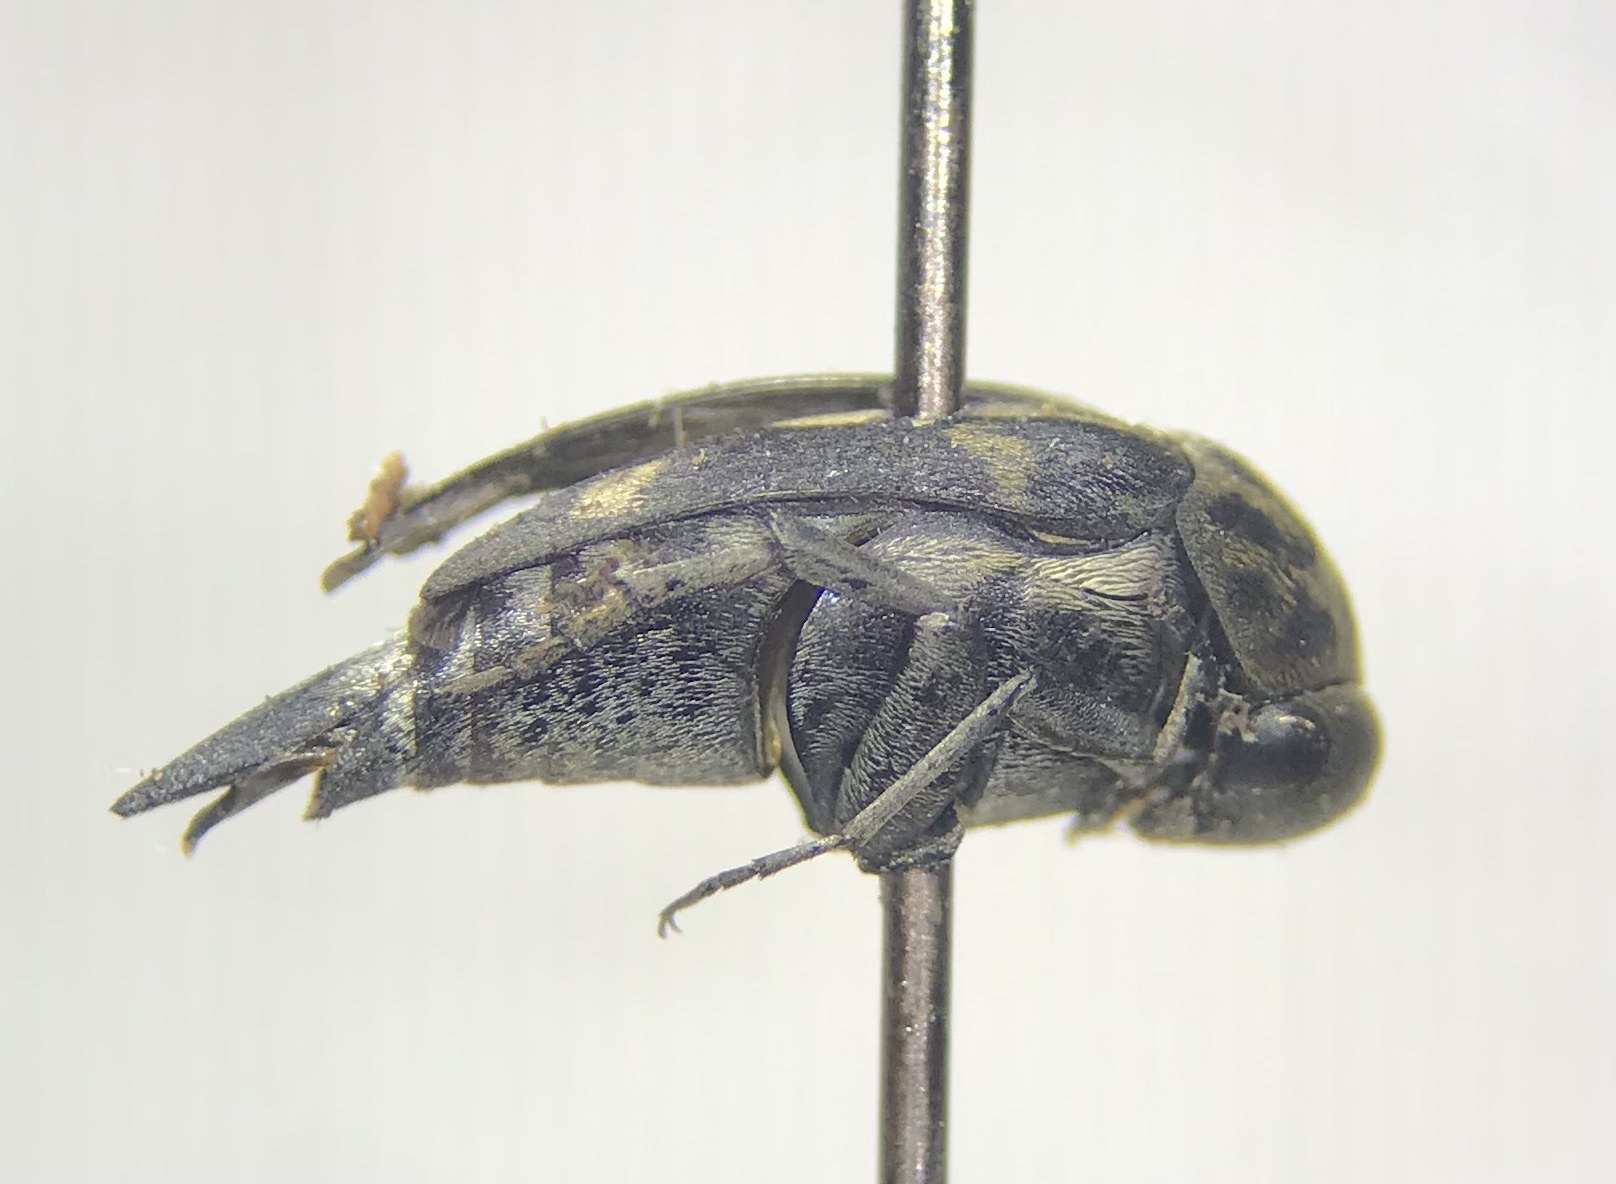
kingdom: Animalia
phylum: Arthropoda
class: Insecta
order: Coleoptera
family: Mordellidae
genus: Hoshihananomia
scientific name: Hoshihananomia octopunctata
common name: Eight-spotted tumbling flower beetle
